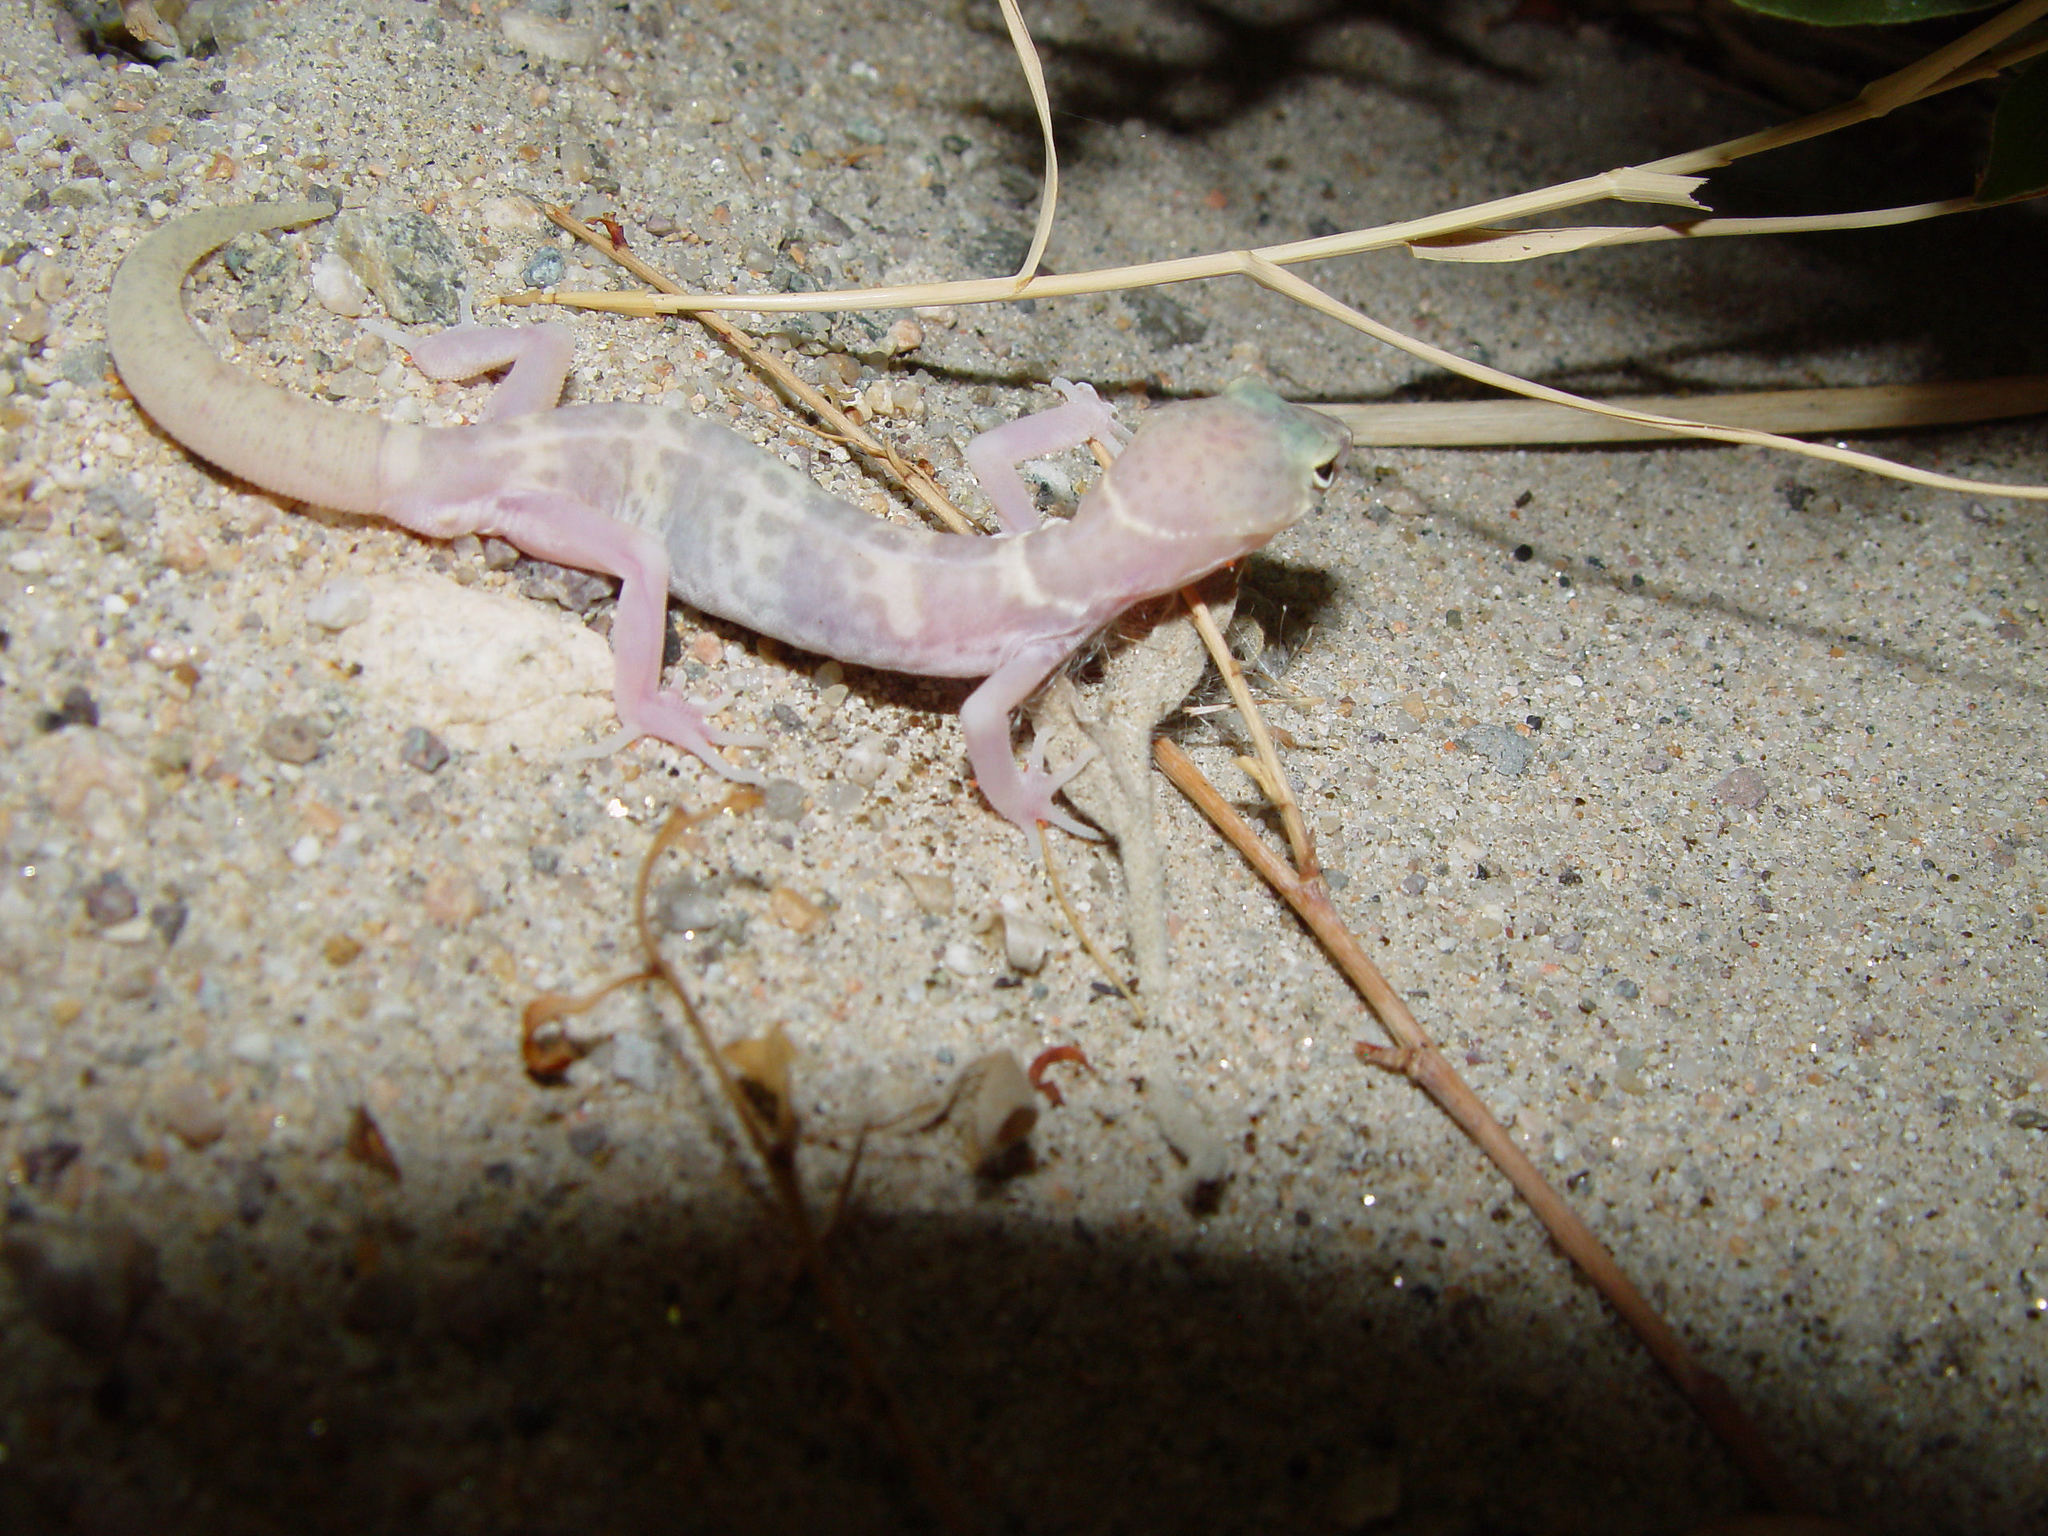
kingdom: Animalia
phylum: Chordata
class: Squamata
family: Eublepharidae
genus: Coleonyx
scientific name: Coleonyx variegatus
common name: Western banded gecko
